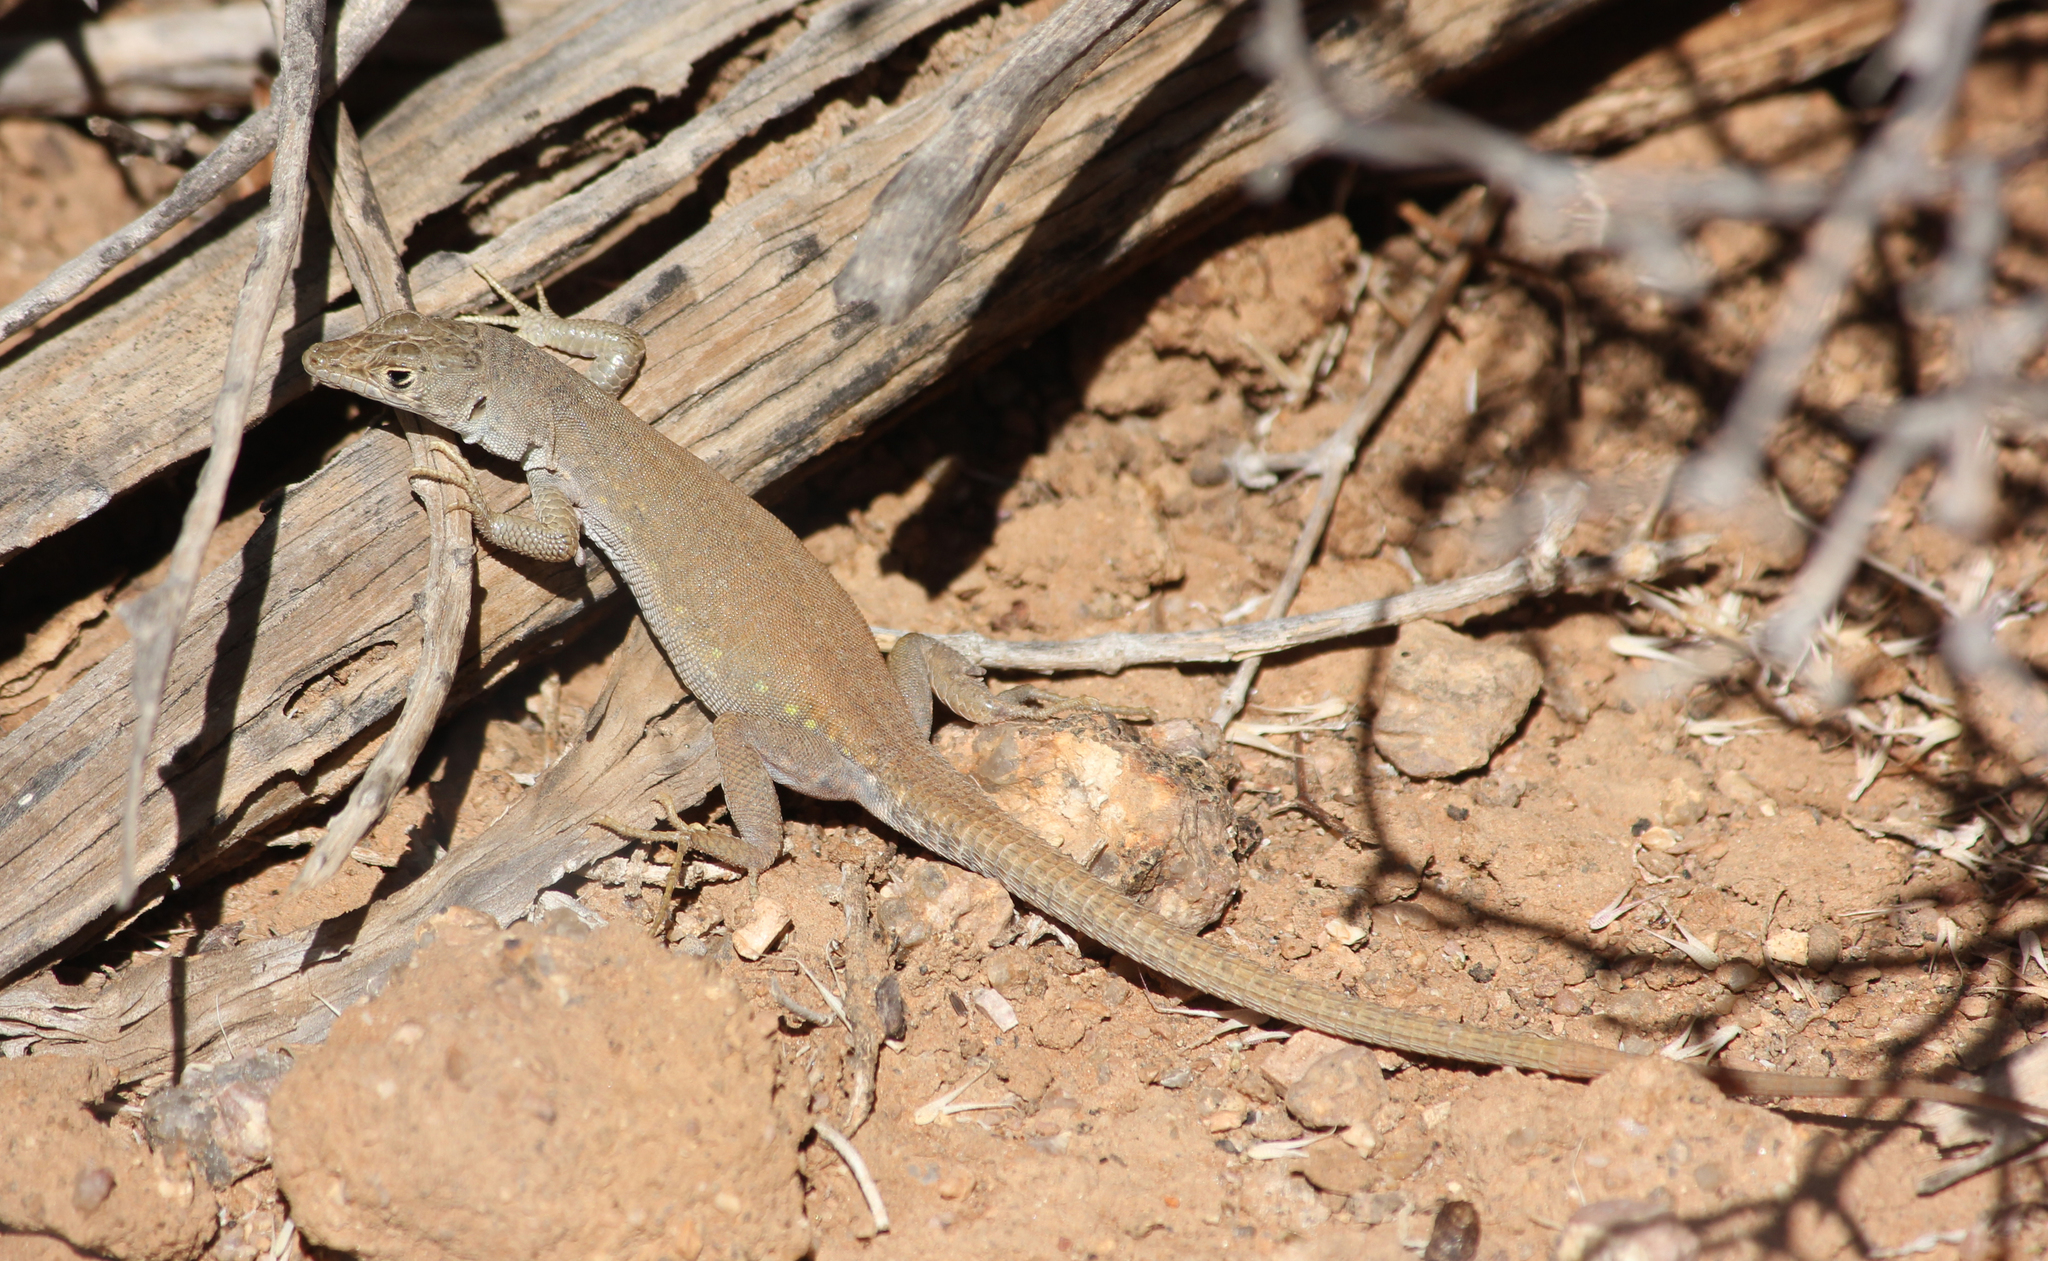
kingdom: Animalia
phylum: Chordata
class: Squamata
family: Lacertidae
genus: Pedioplanis
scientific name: Pedioplanis inornata
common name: Plain sand lizard
